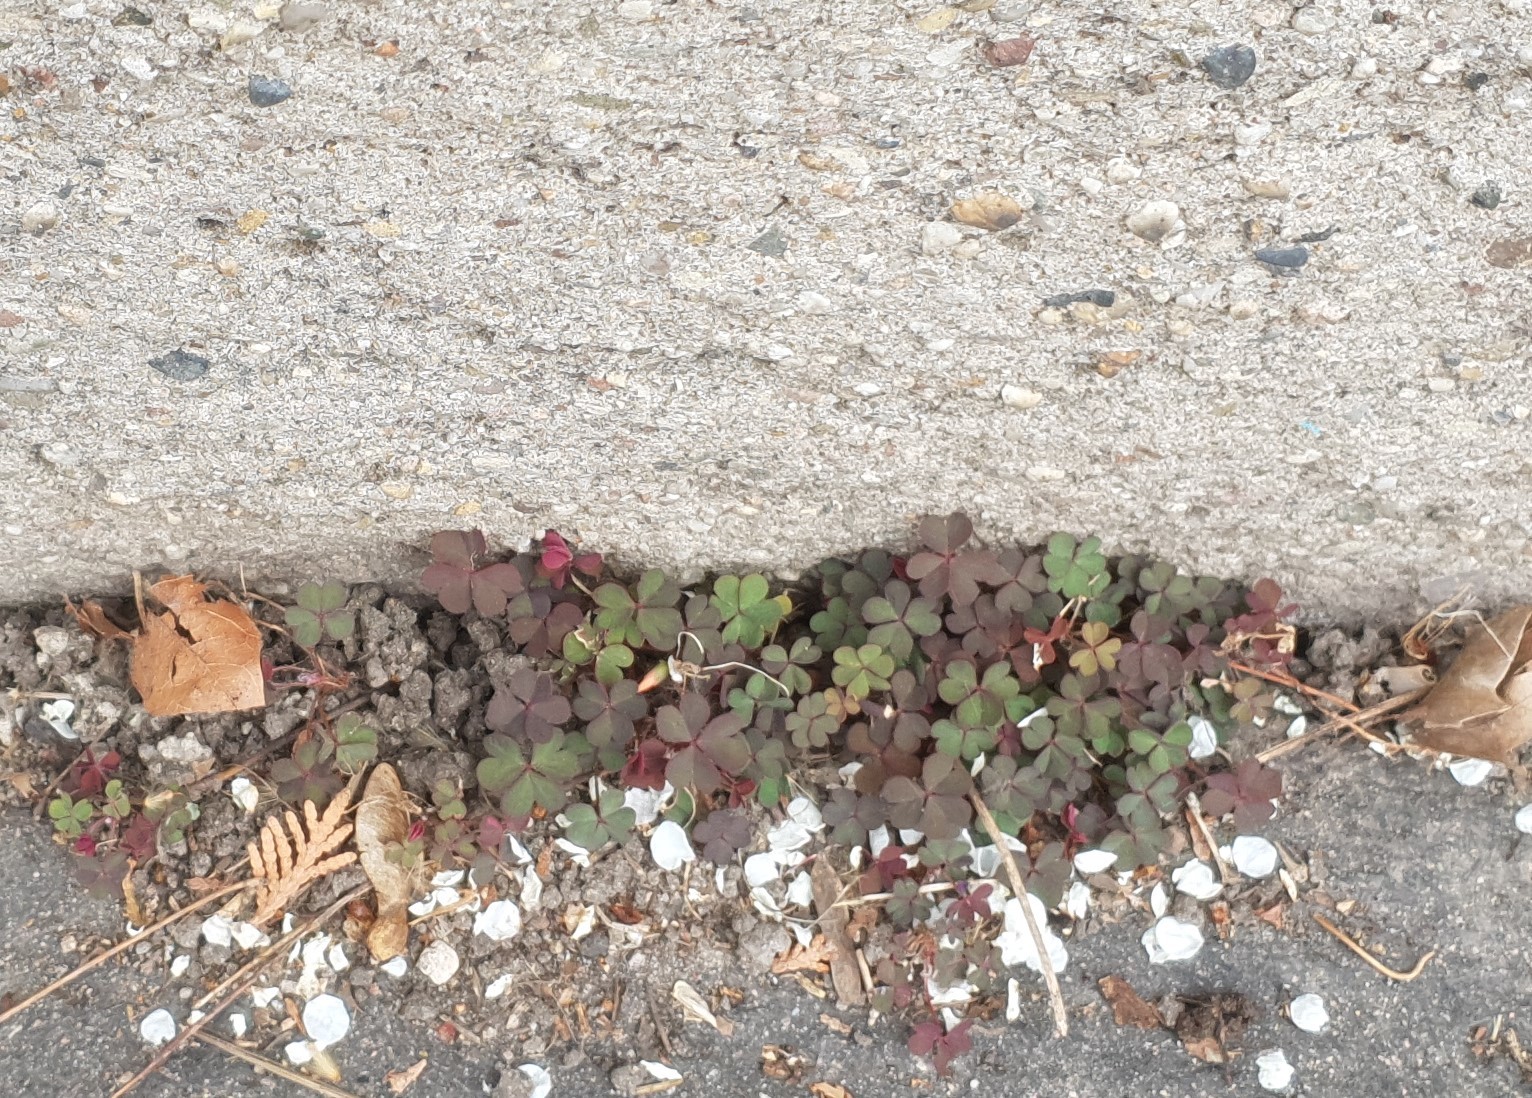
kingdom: Plantae
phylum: Tracheophyta
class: Magnoliopsida
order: Oxalidales
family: Oxalidaceae
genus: Oxalis
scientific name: Oxalis corniculata
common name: Procumbent yellow-sorrel
